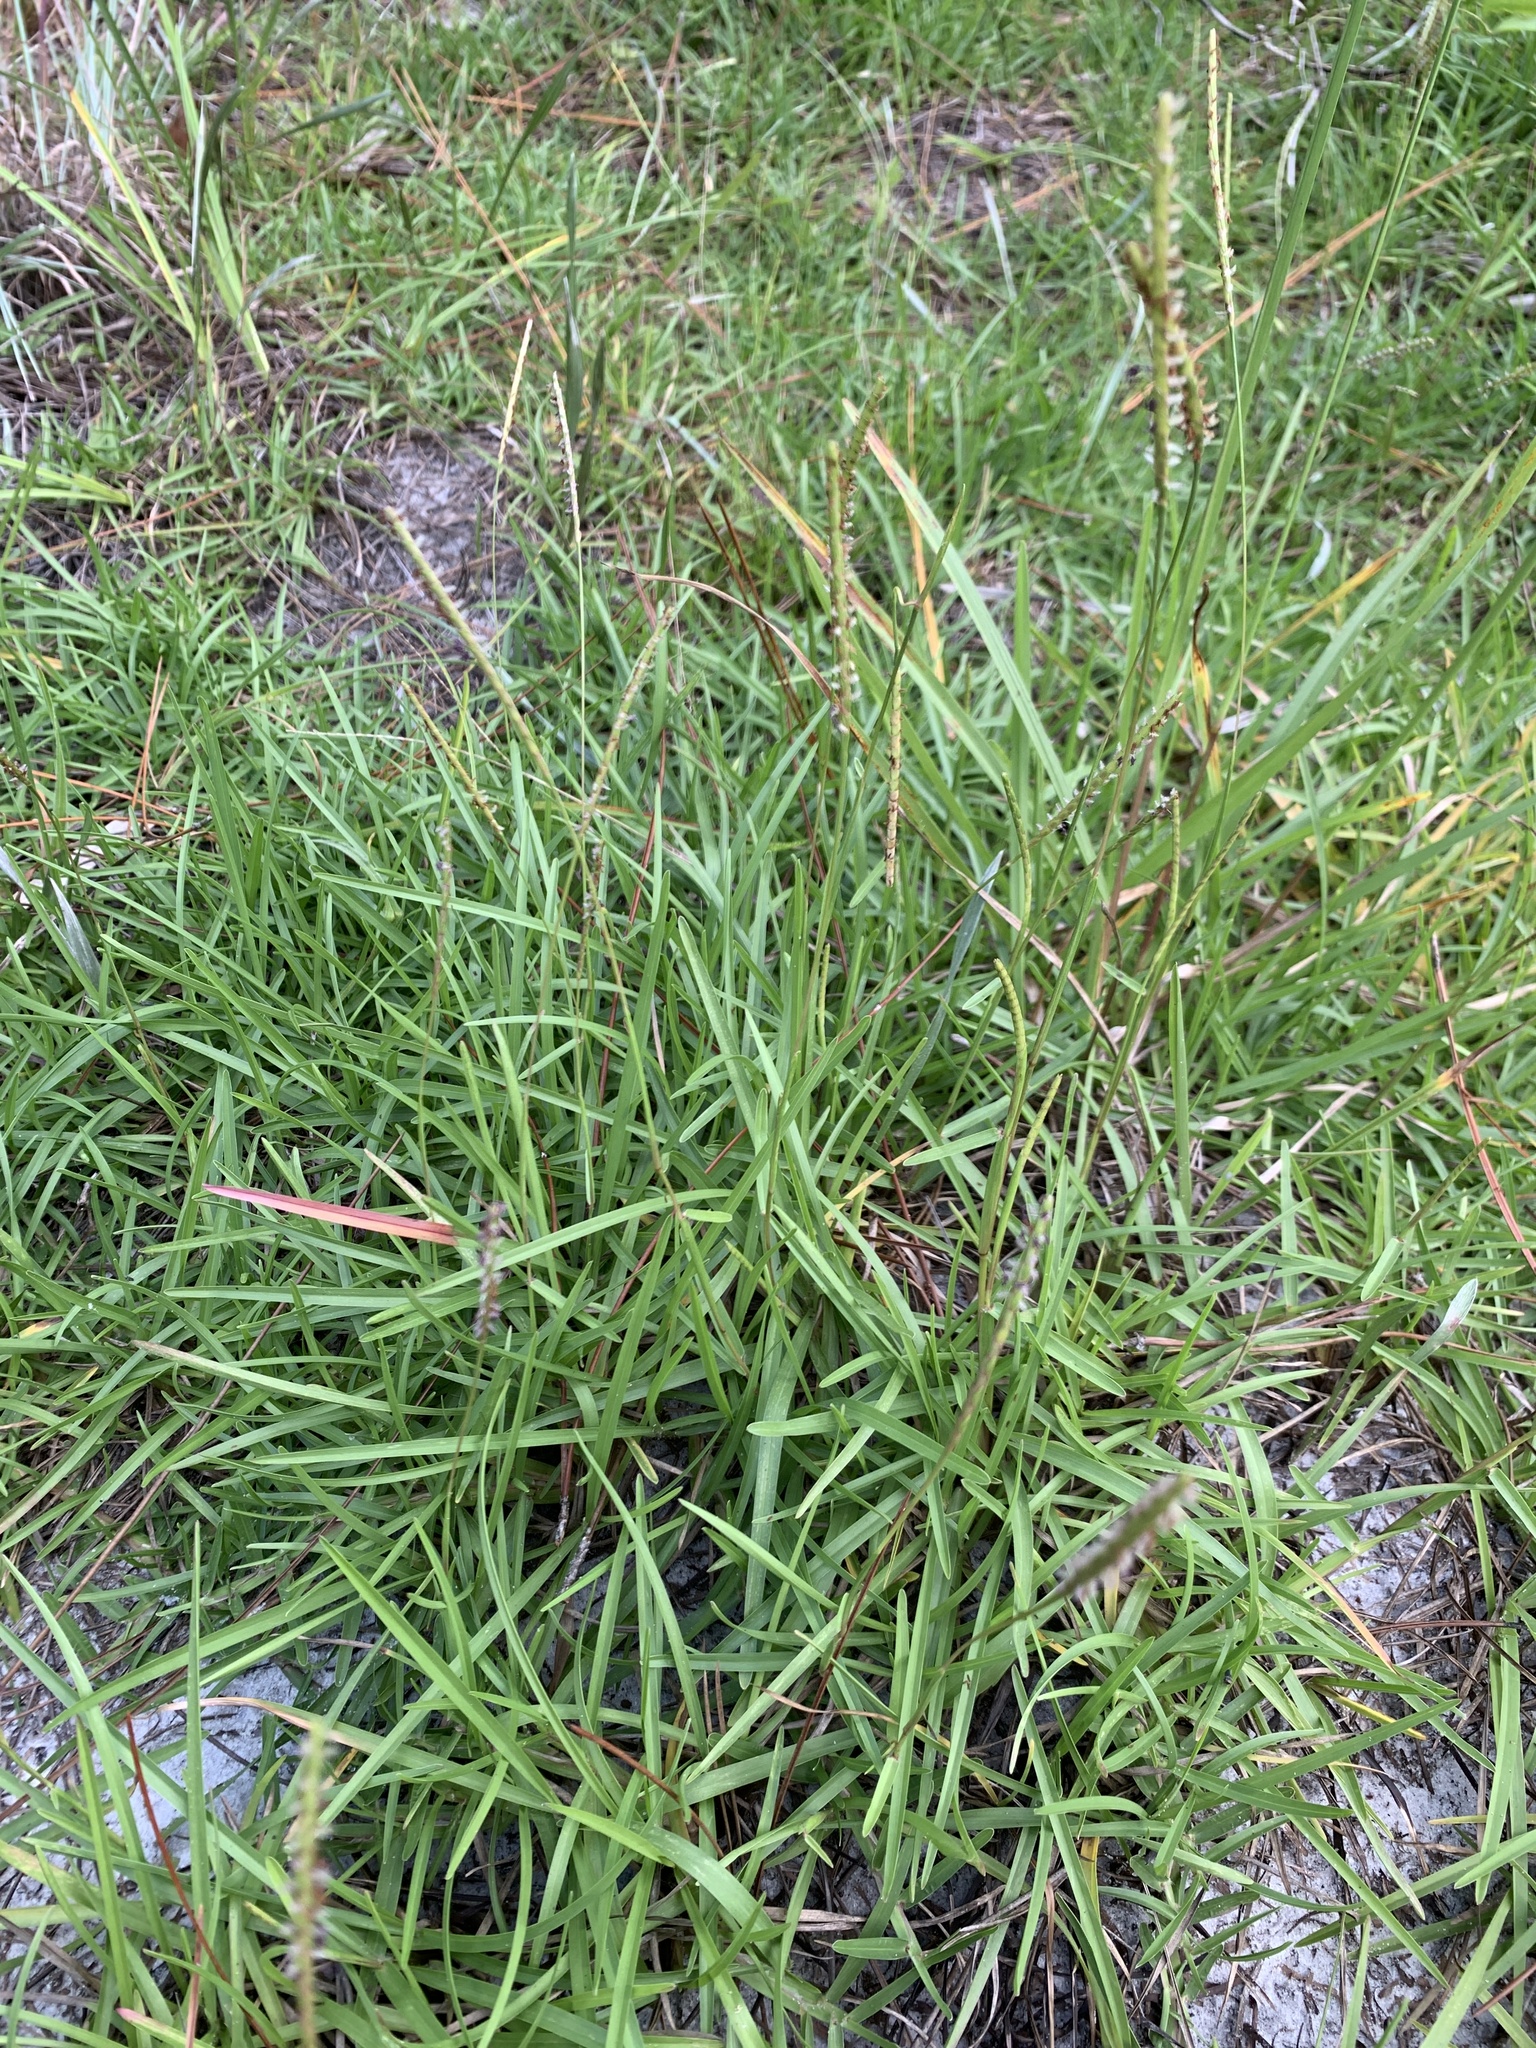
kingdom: Plantae
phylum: Tracheophyta
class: Liliopsida
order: Poales
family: Poaceae
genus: Eremochloa
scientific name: Eremochloa ophiuroides
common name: Centipede grass
